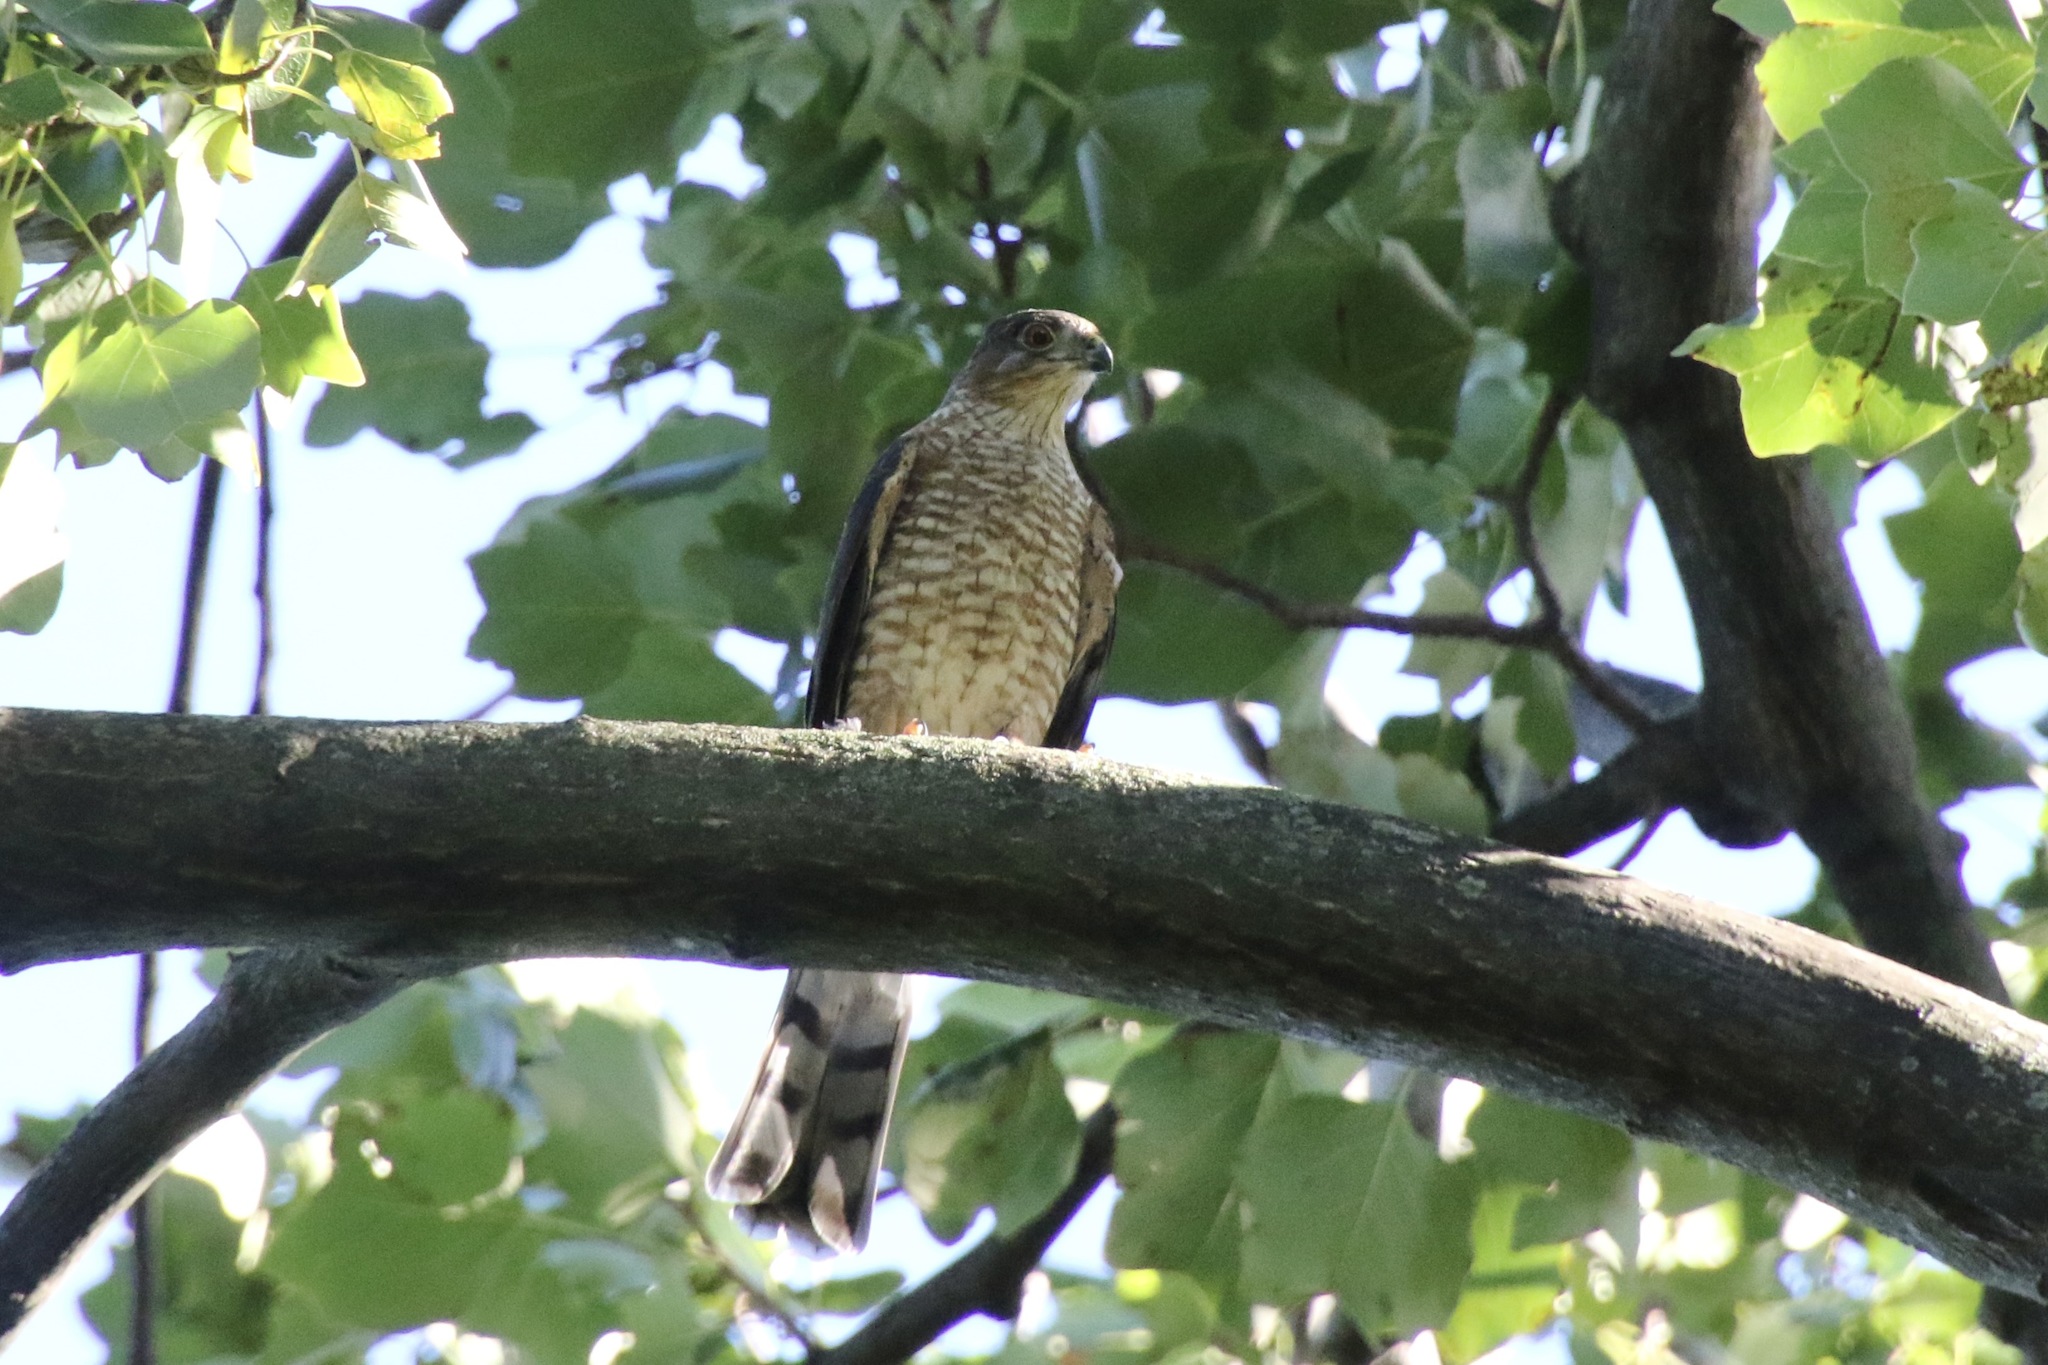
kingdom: Animalia
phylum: Chordata
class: Aves
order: Accipitriformes
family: Accipitridae
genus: Accipiter
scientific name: Accipiter striatus
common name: Sharp-shinned hawk
